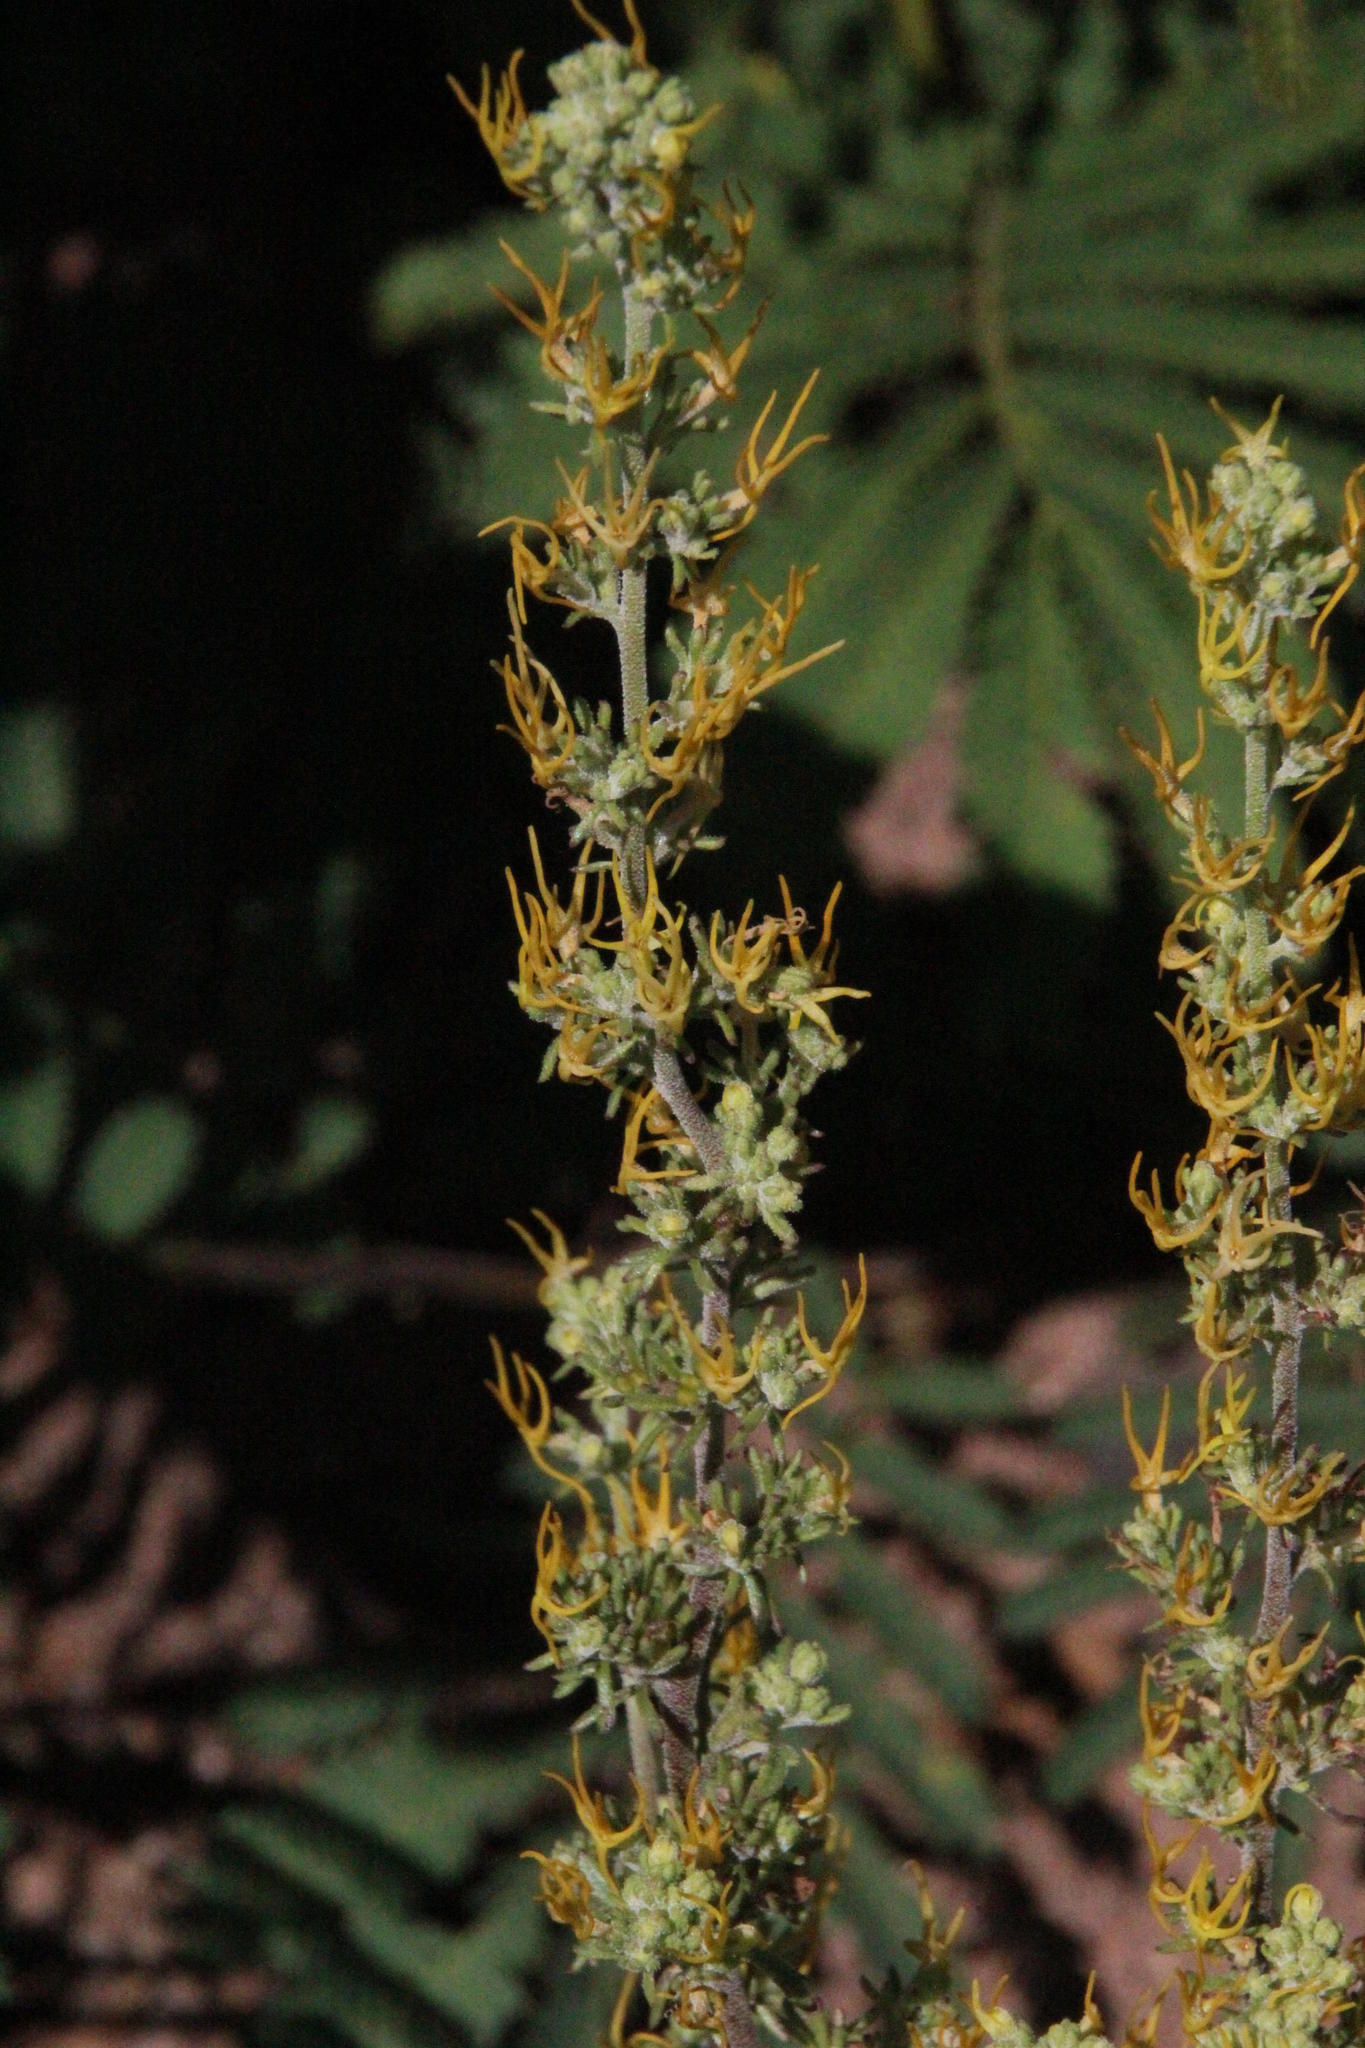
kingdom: Plantae
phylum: Tracheophyta
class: Magnoliopsida
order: Lamiales
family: Scrophulariaceae
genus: Manulea
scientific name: Manulea cheiranthus
